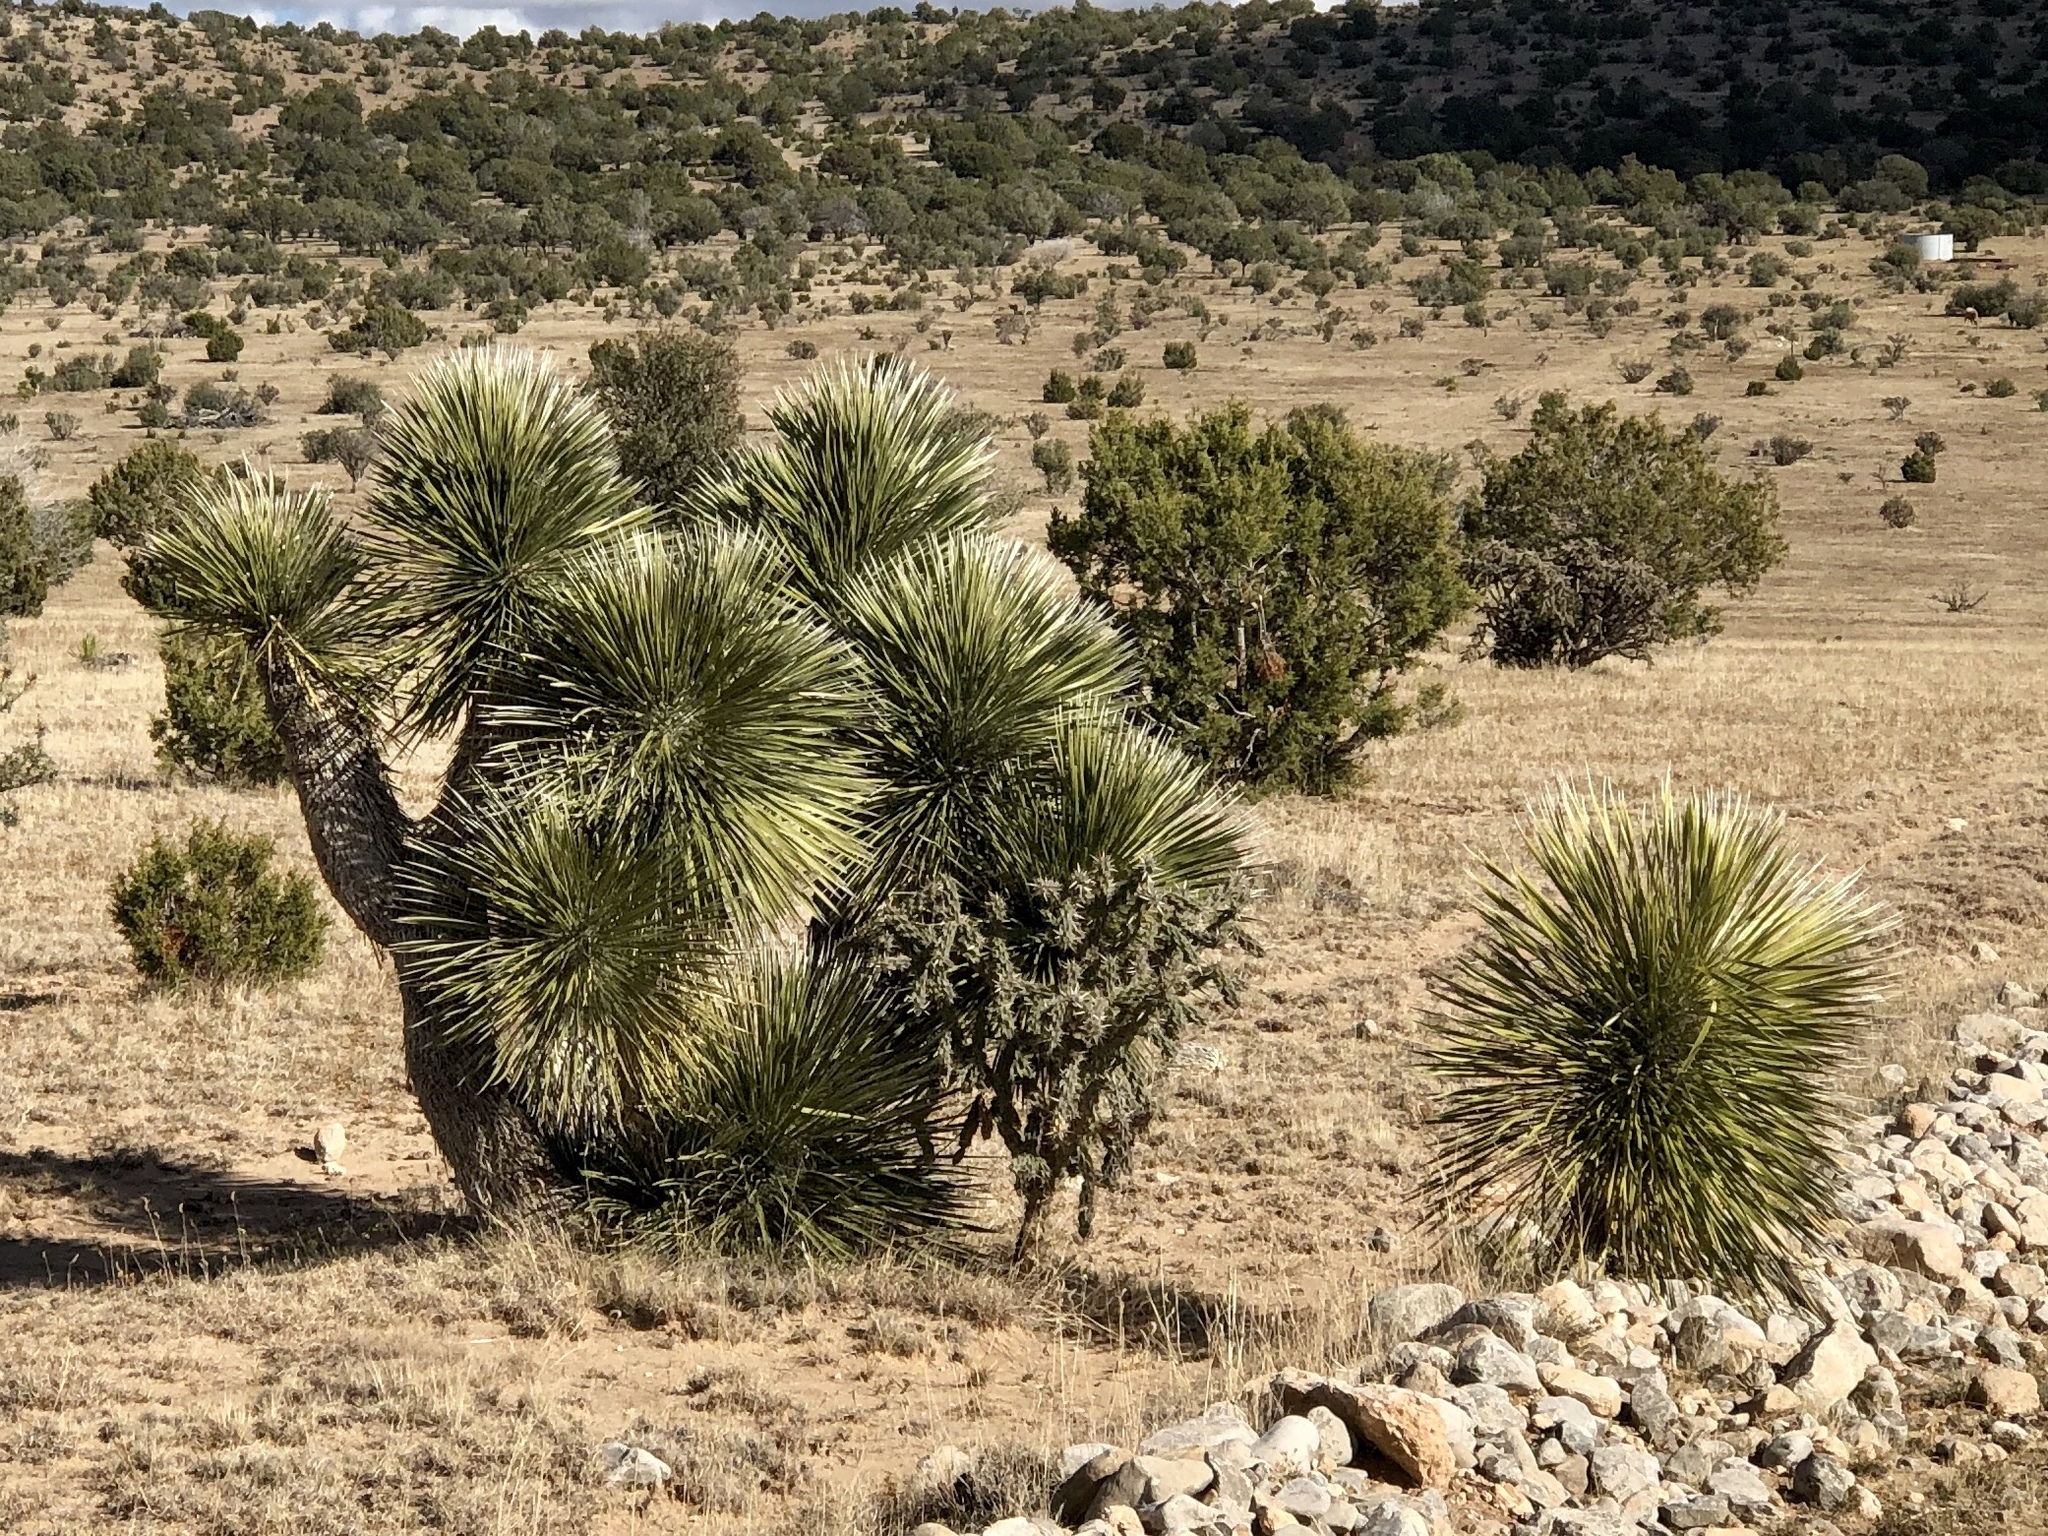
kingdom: Plantae
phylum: Tracheophyta
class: Liliopsida
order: Asparagales
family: Asparagaceae
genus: Yucca
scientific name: Yucca elata
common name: Palmella
